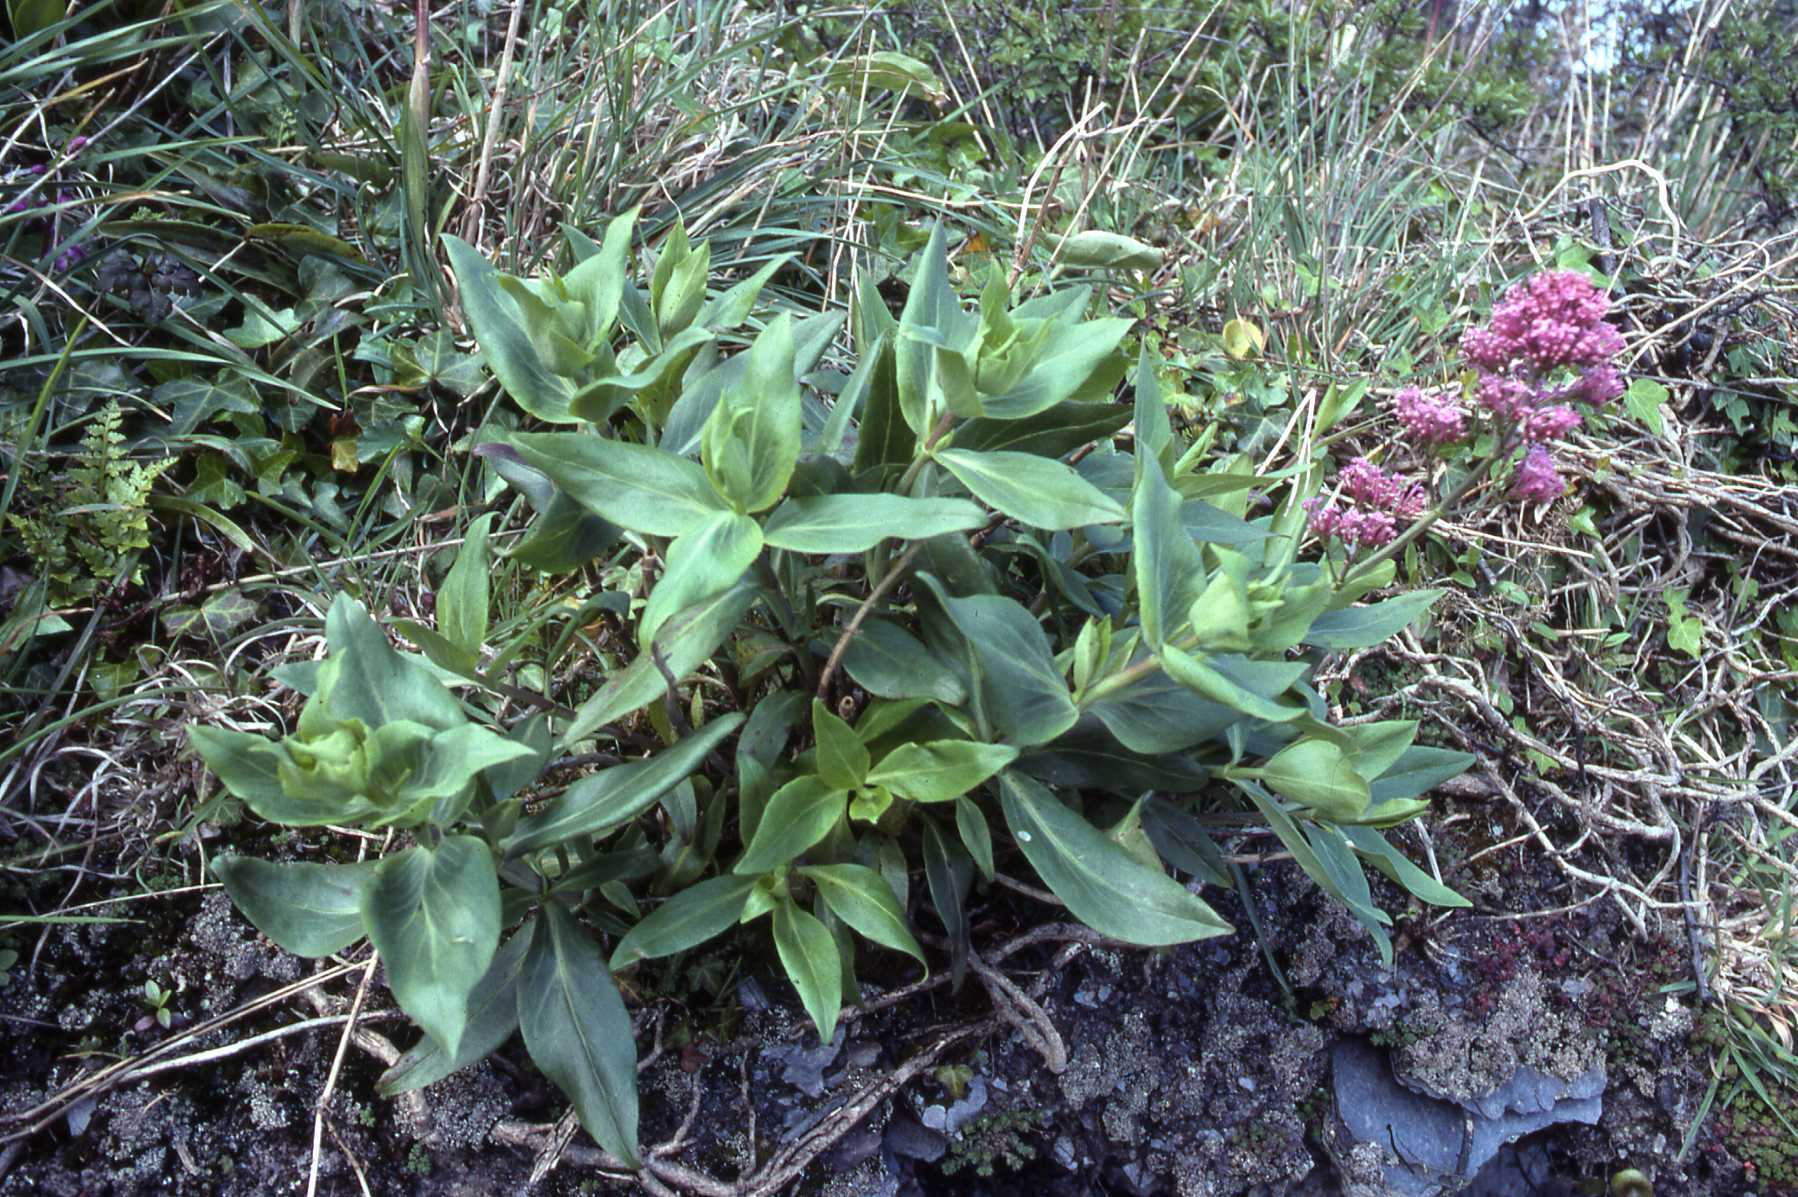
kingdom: Plantae
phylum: Tracheophyta
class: Magnoliopsida
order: Dipsacales
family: Caprifoliaceae
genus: Centranthus
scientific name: Centranthus ruber
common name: Red valerian
